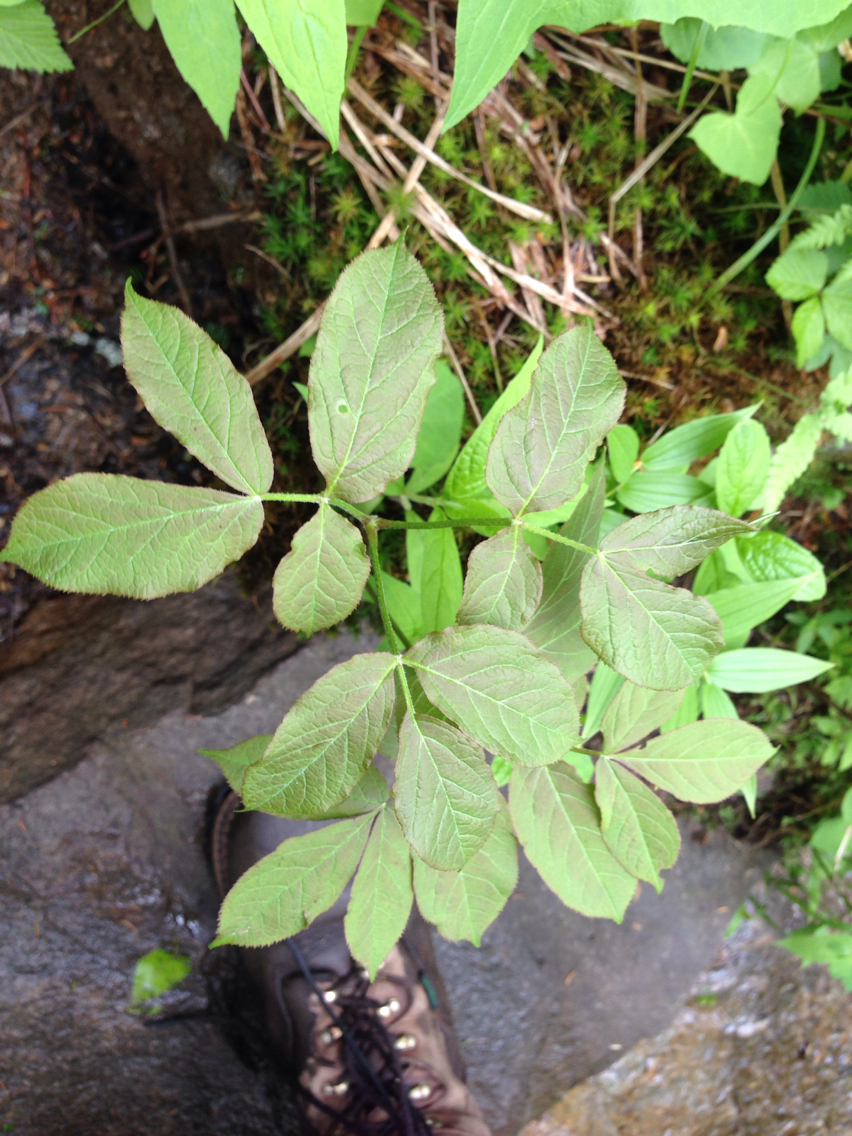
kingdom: Plantae
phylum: Tracheophyta
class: Magnoliopsida
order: Apiales
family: Araliaceae
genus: Aralia
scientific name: Aralia nudicaulis
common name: Wild sarsaparilla
